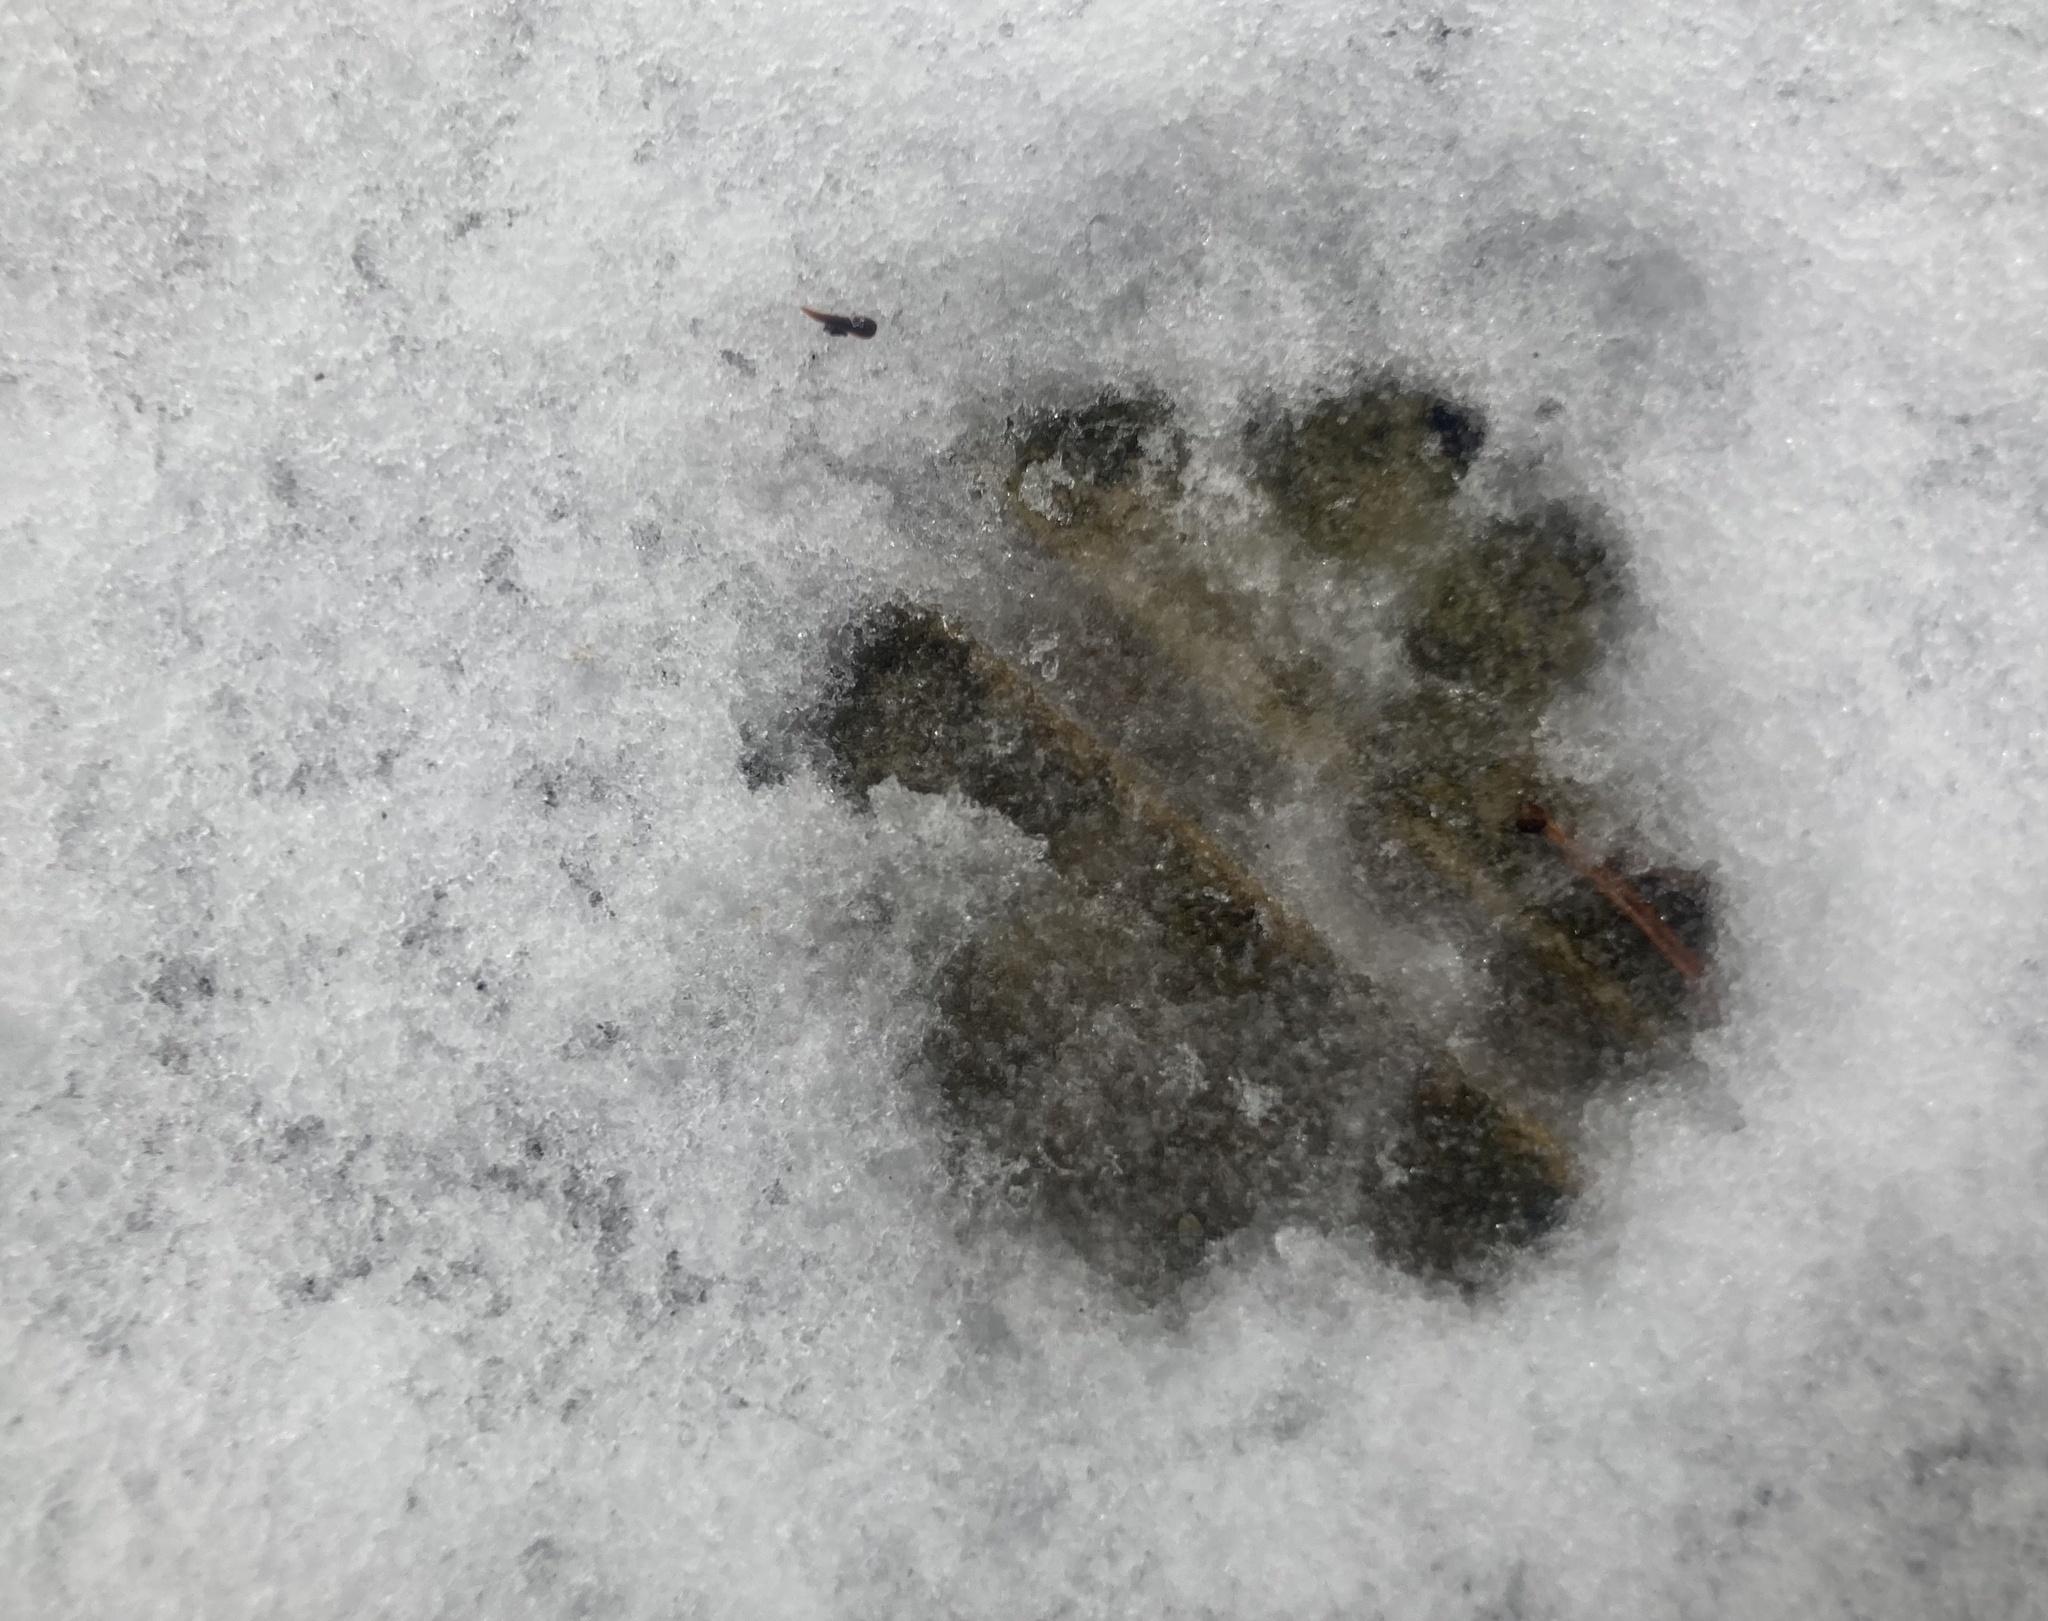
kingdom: Animalia
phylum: Chordata
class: Mammalia
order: Carnivora
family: Felidae
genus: Lynx
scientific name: Lynx rufus
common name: Bobcat
